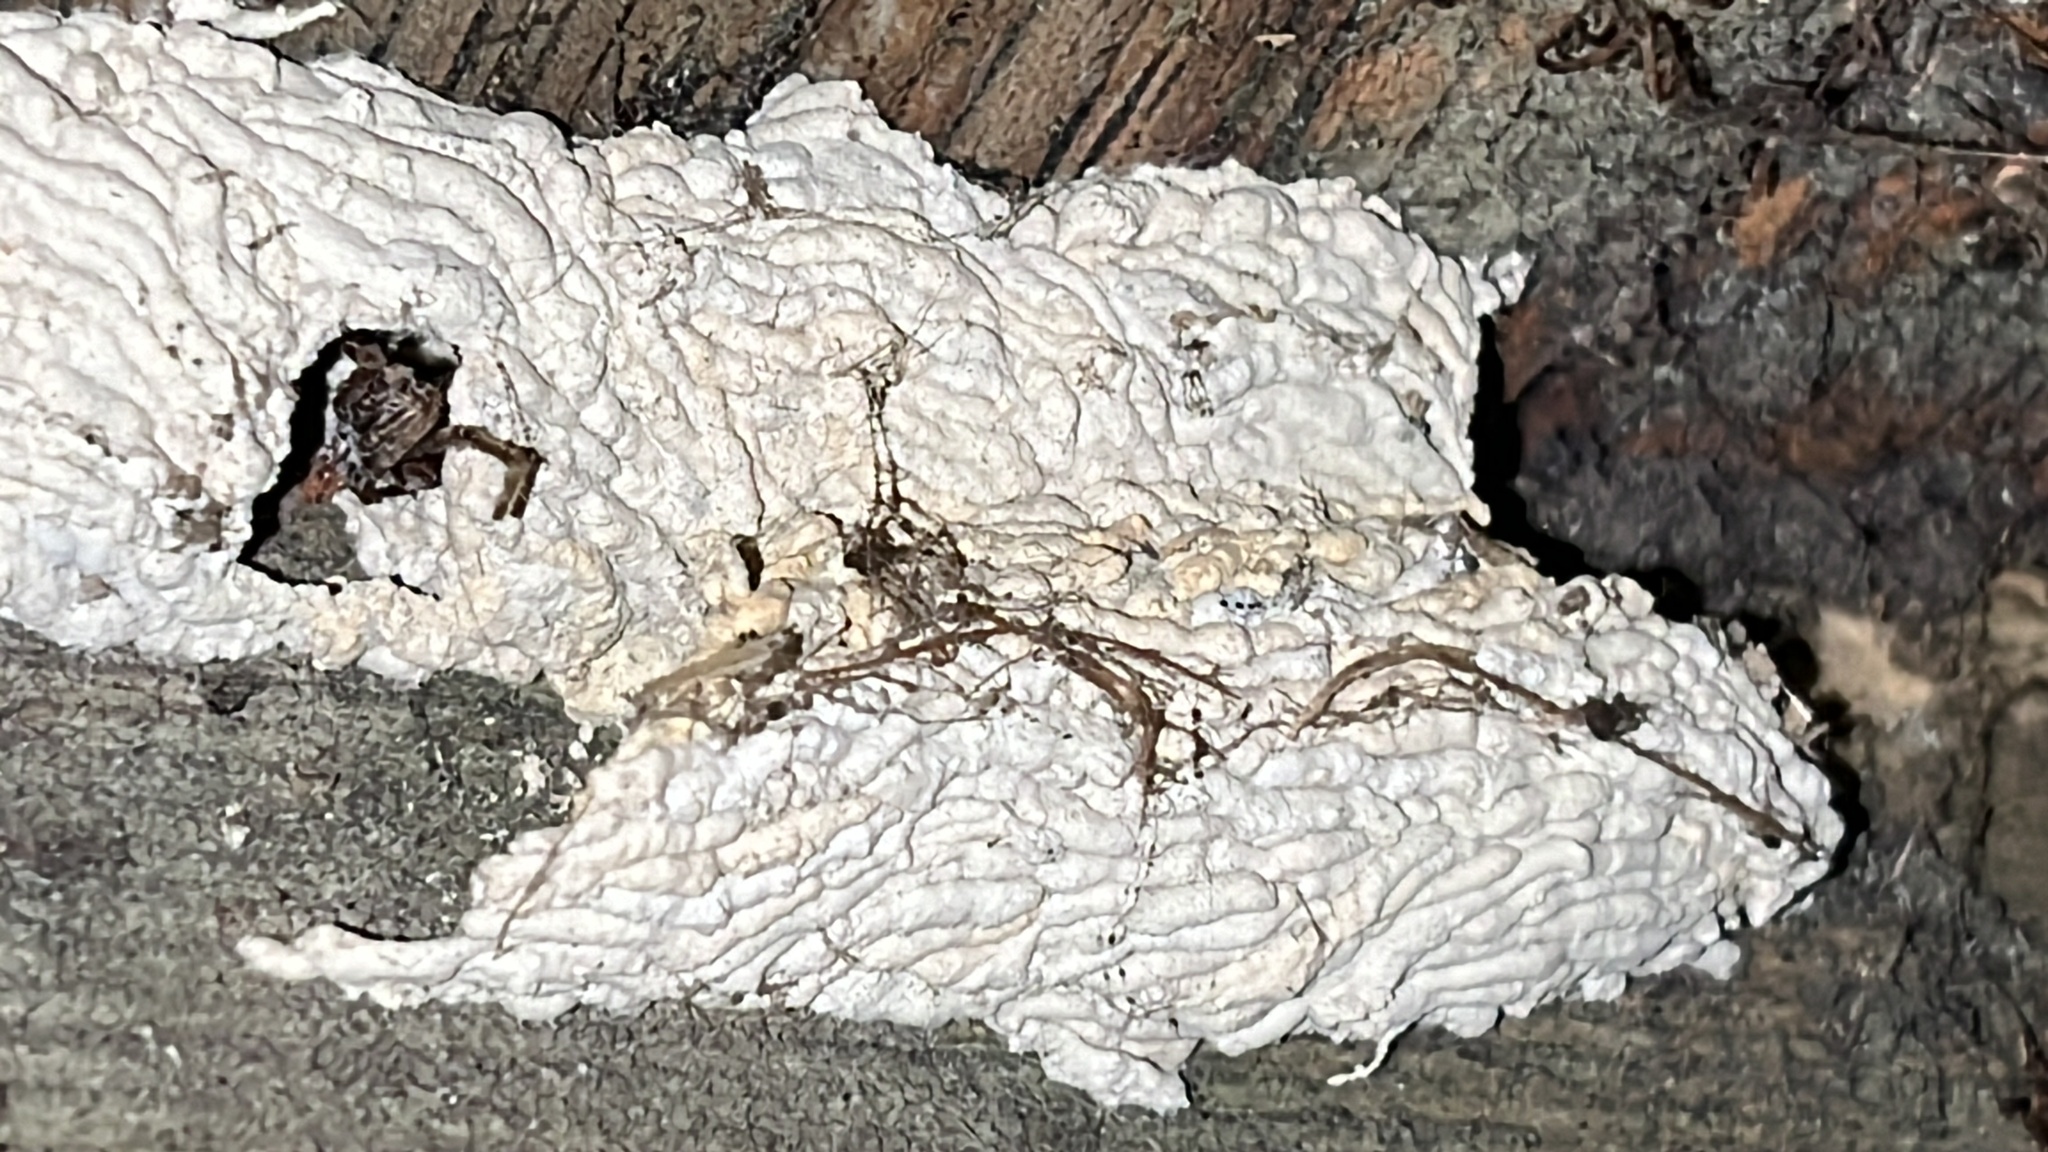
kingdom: Animalia
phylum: Arthropoda
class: Insecta
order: Hymenoptera
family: Crabronidae
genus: Pison
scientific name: Pison spinolae
